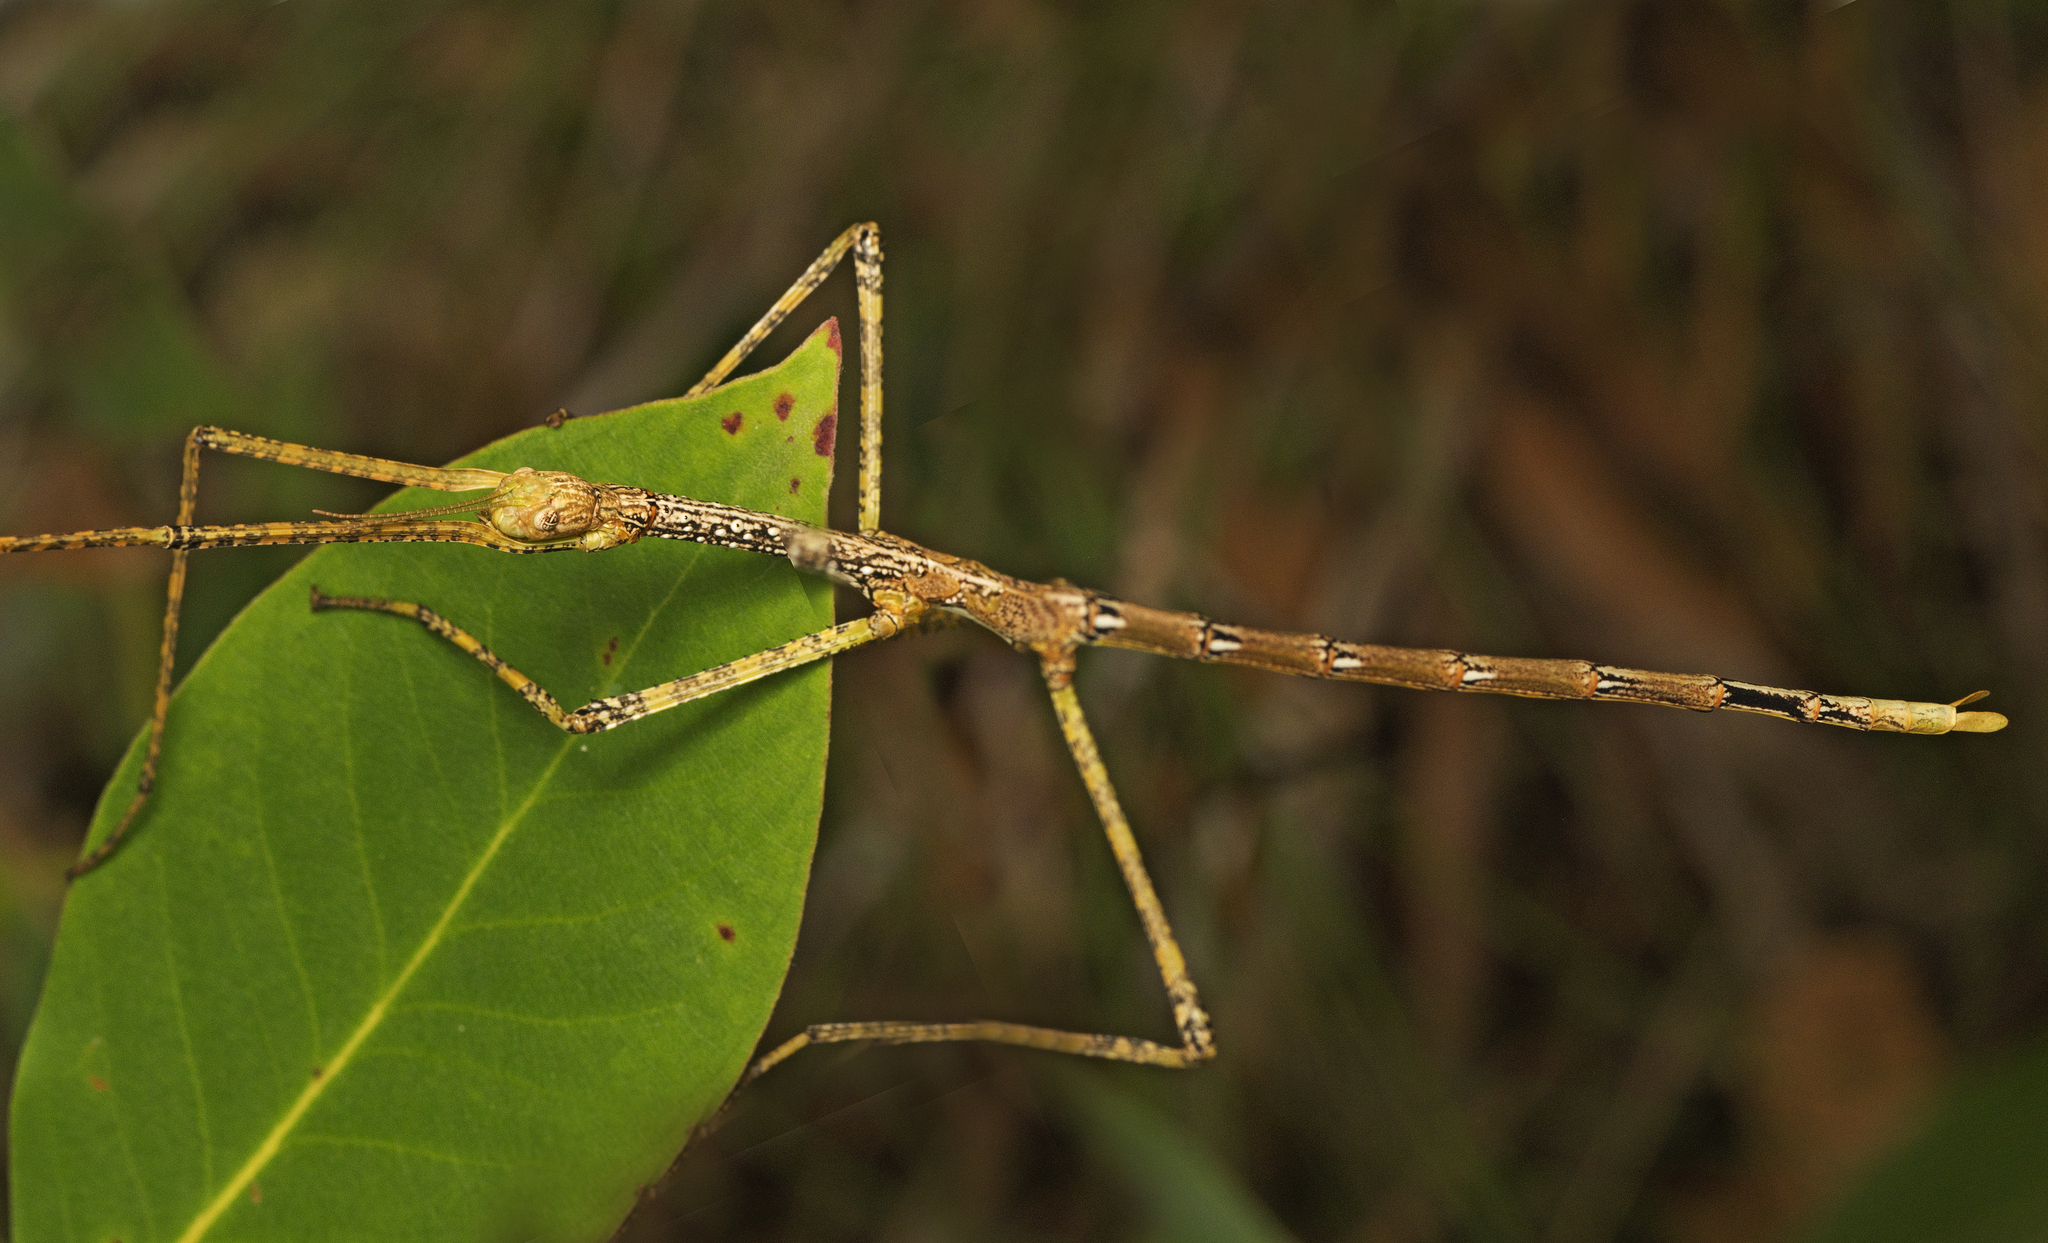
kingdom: Animalia
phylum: Arthropoda
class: Insecta
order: Phasmida
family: Phasmatidae
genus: Anchiale
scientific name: Anchiale austrotessulata
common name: Tessellated stick-insect
